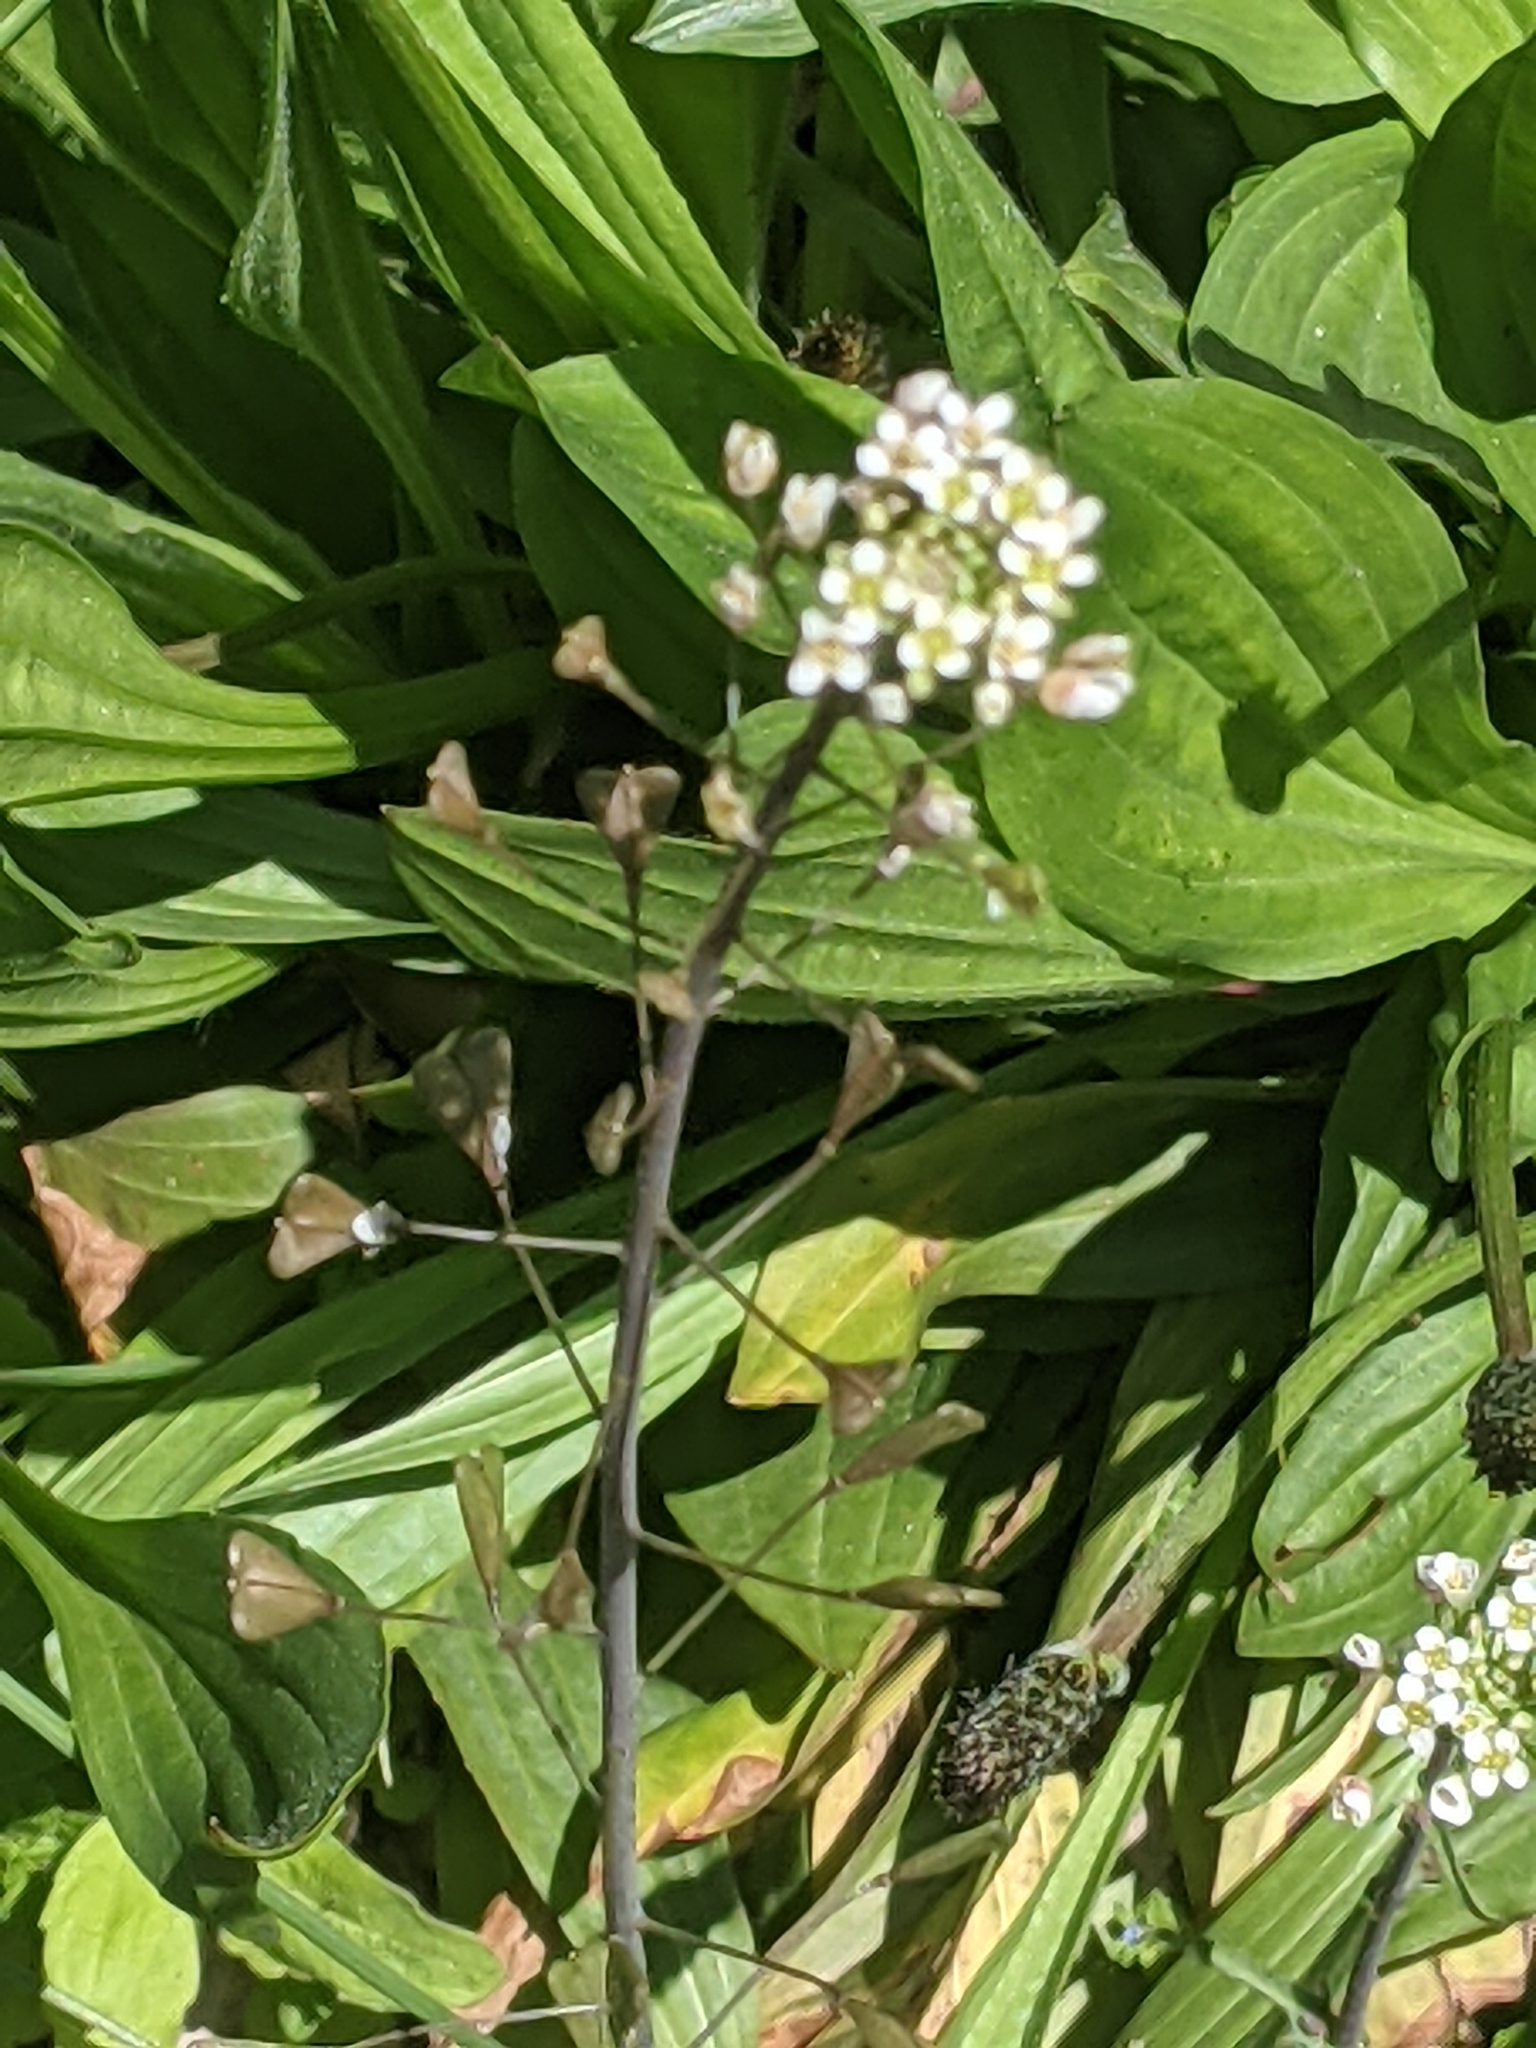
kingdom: Plantae
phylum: Tracheophyta
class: Magnoliopsida
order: Brassicales
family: Brassicaceae
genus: Capsella
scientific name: Capsella bursa-pastoris
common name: Shepherd's purse
